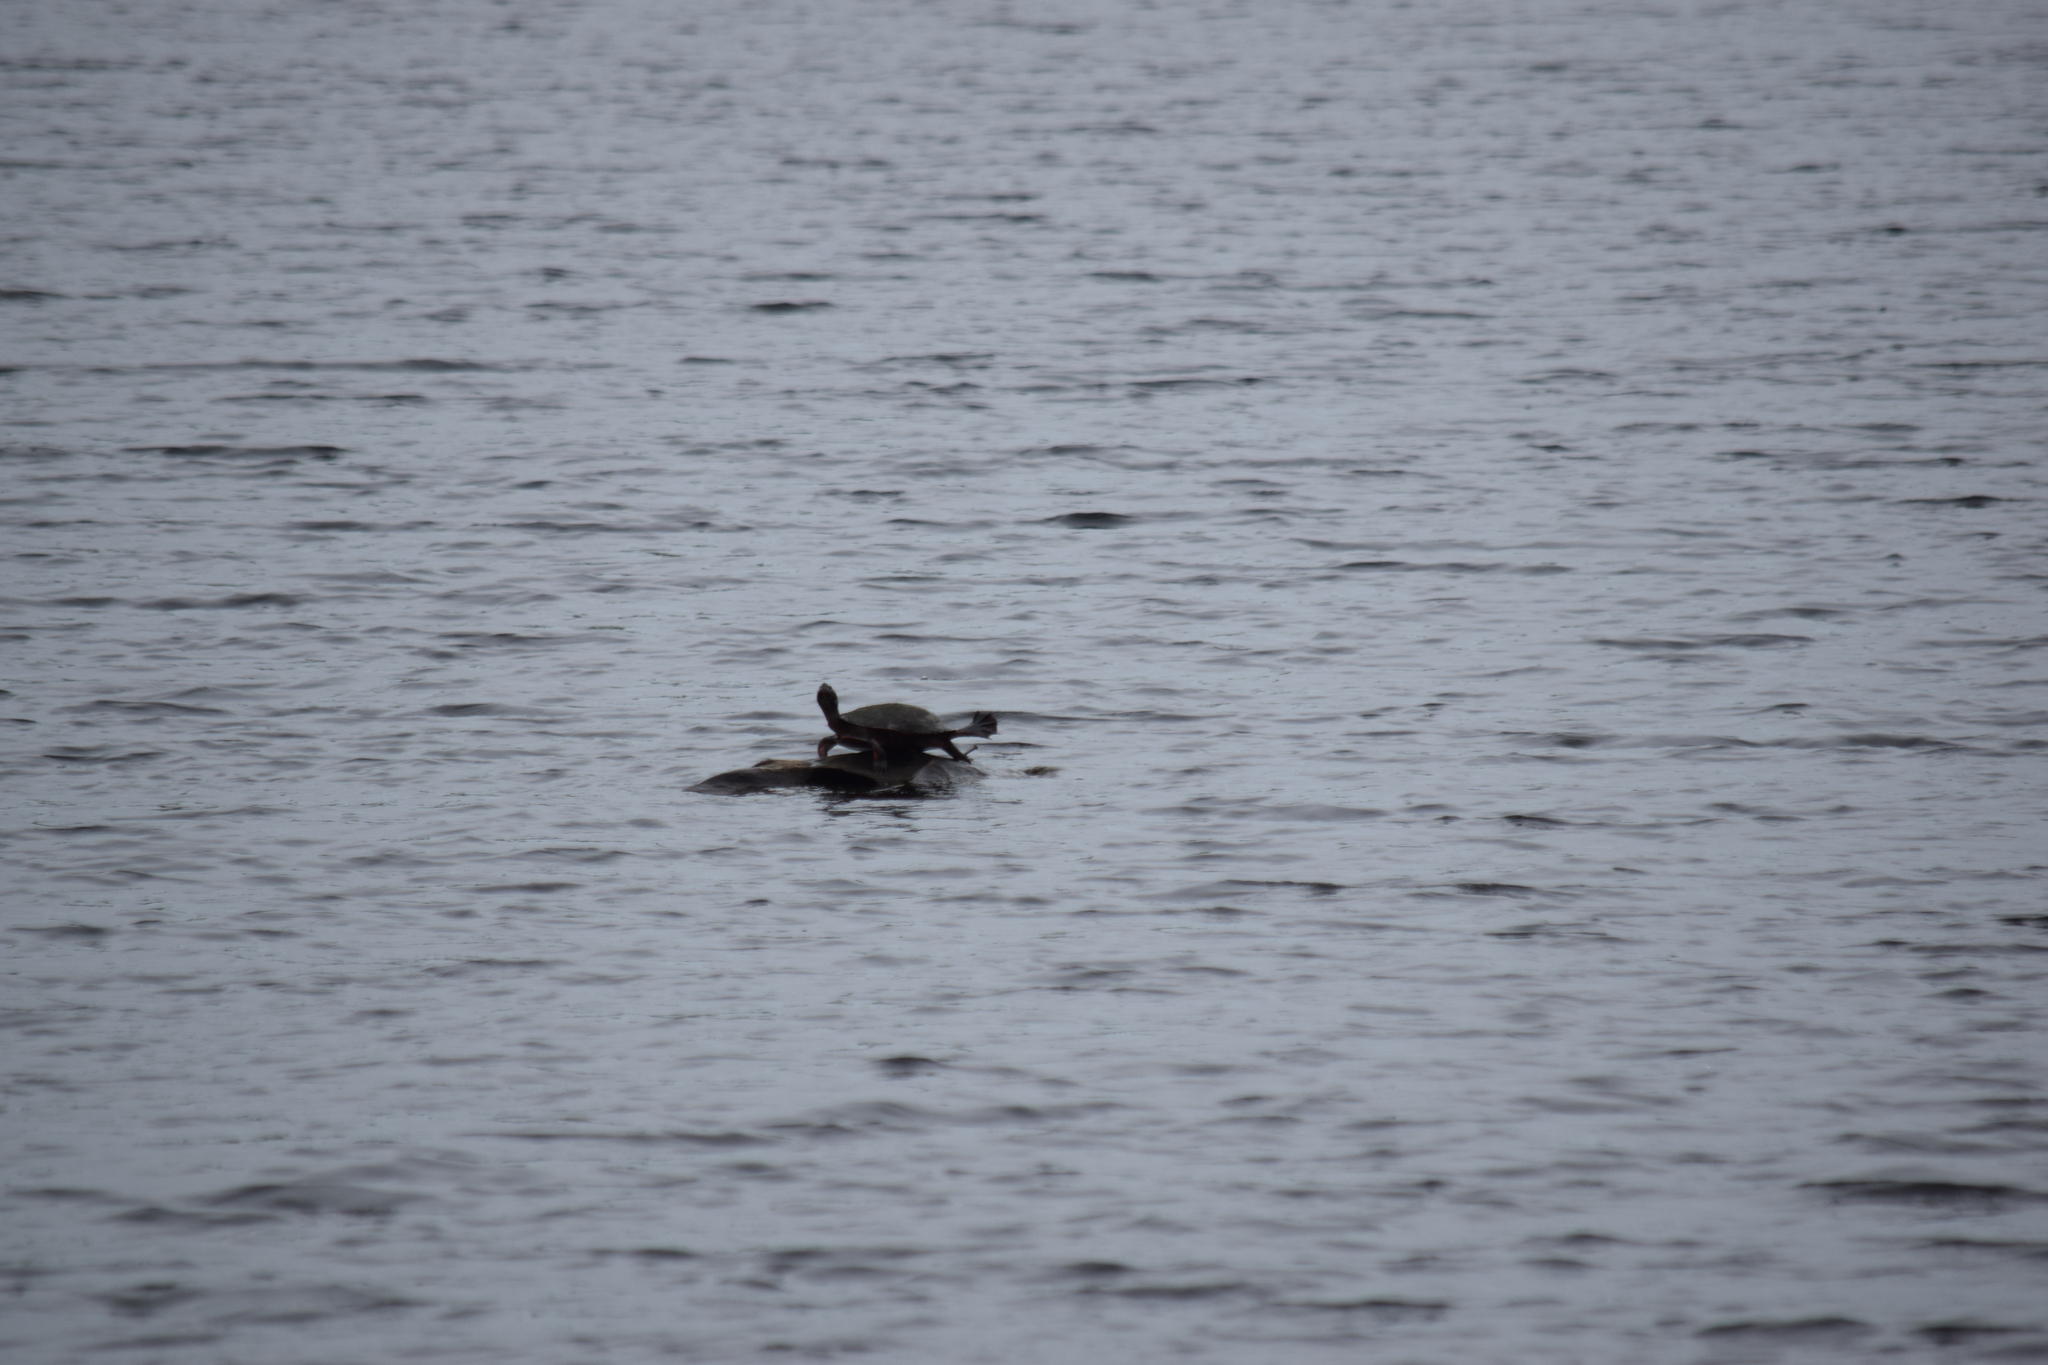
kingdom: Animalia
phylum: Chordata
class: Testudines
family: Emydidae
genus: Pseudemys
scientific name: Pseudemys rubriventris
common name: American red-bellied turtle
